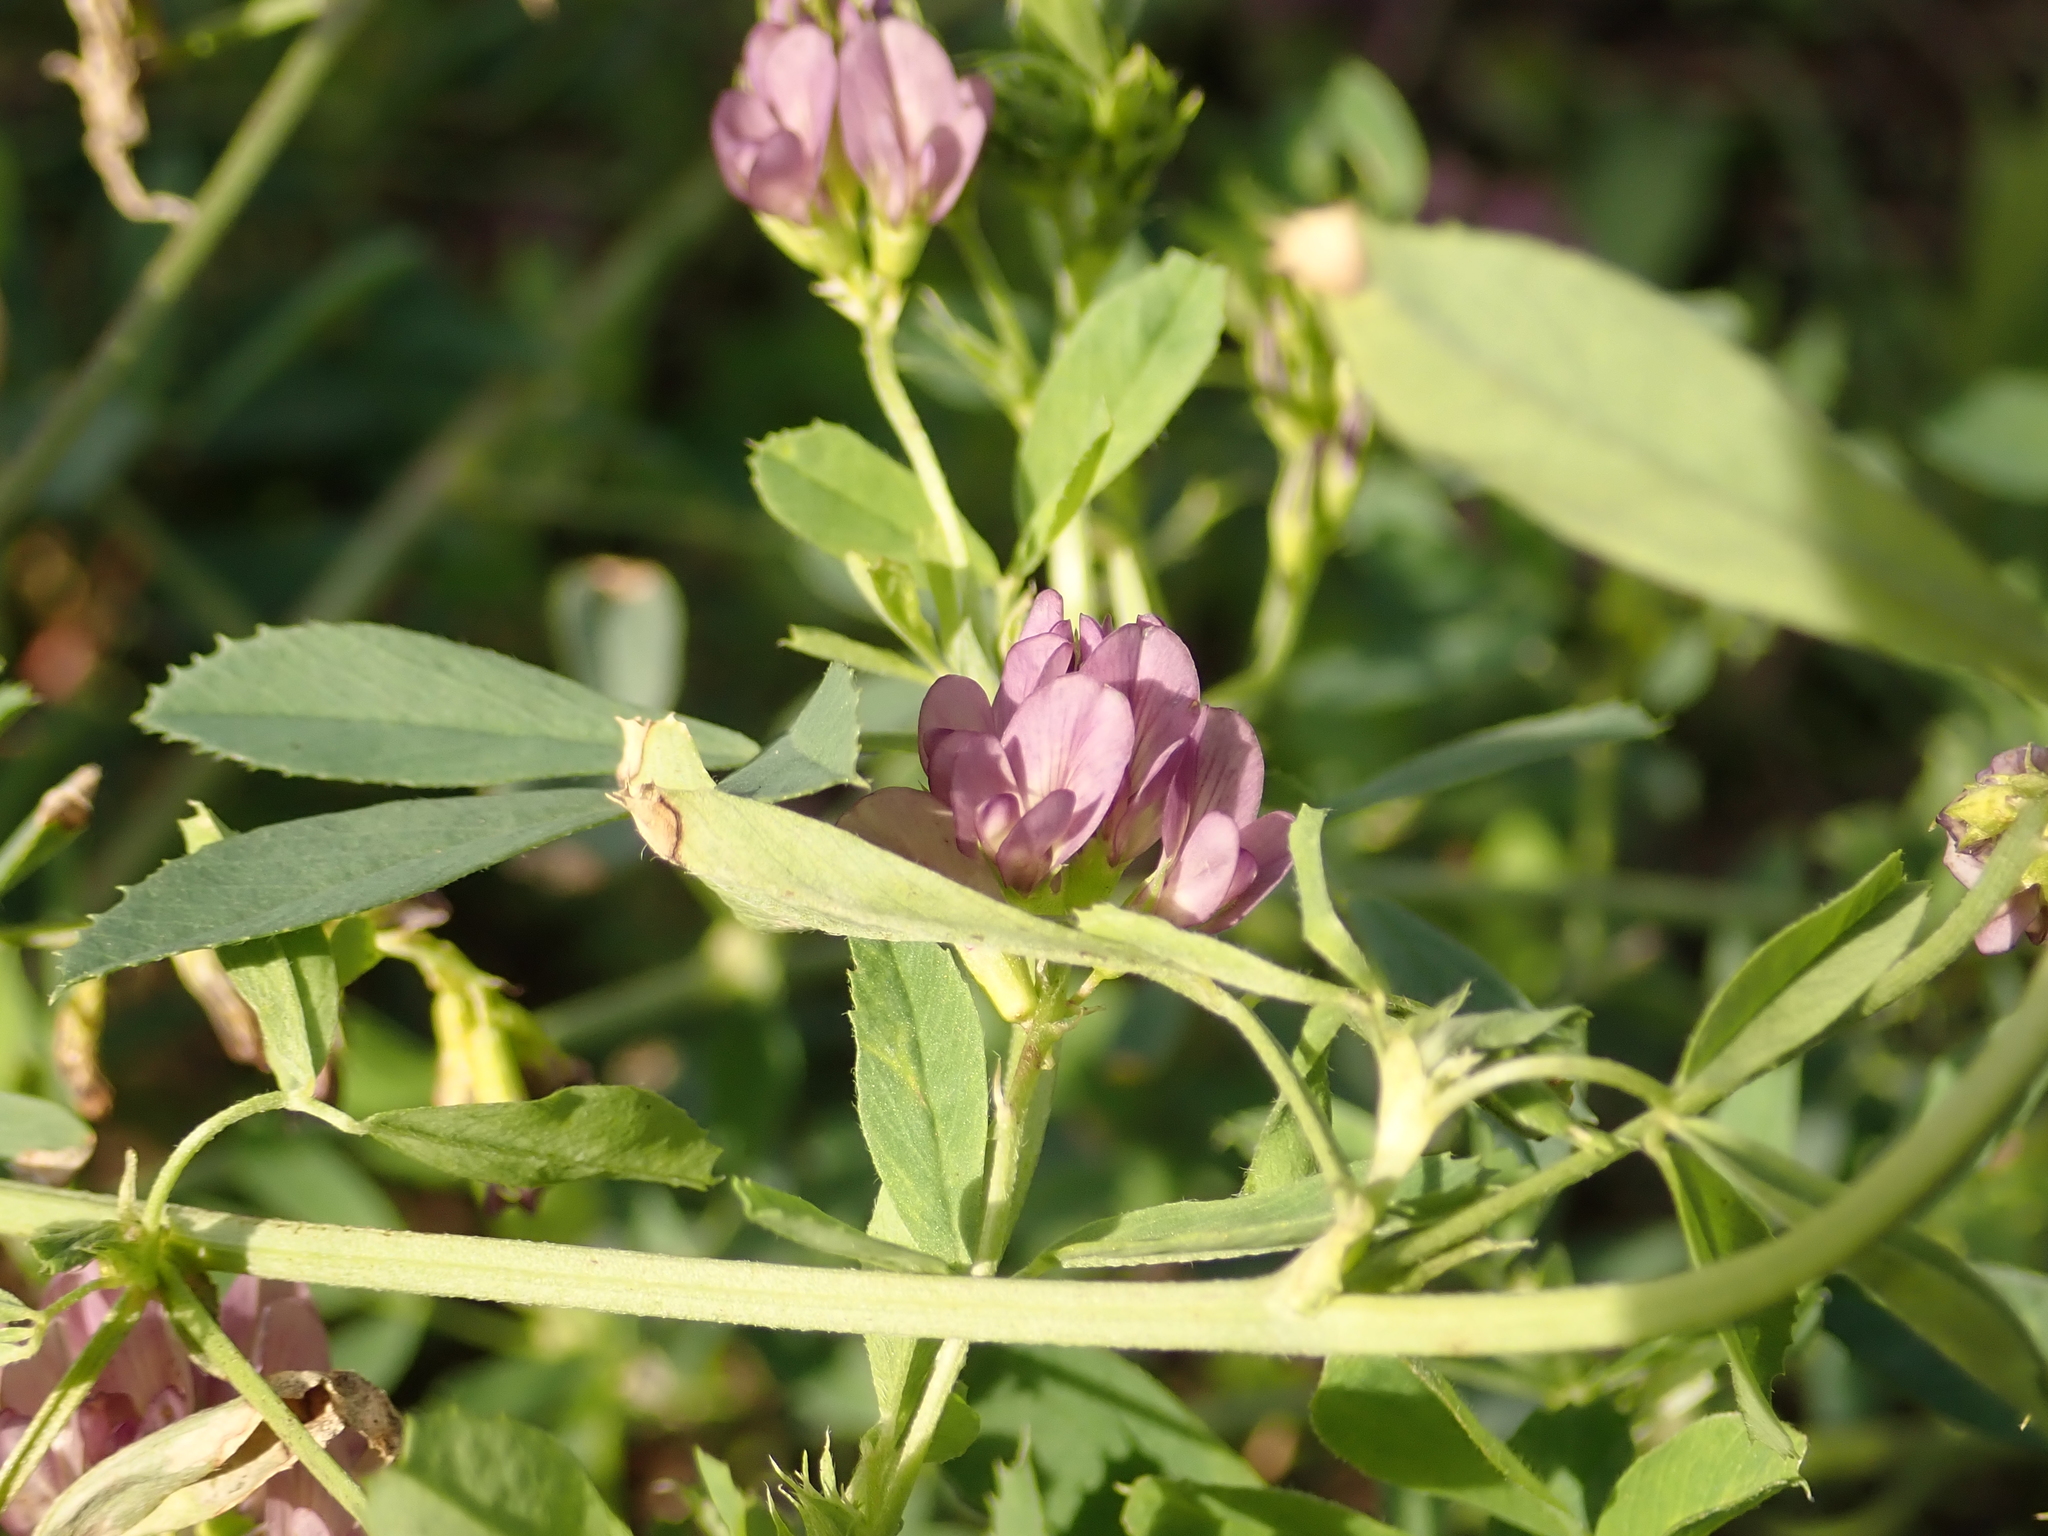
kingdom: Plantae
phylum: Tracheophyta
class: Magnoliopsida
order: Fabales
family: Fabaceae
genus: Medicago
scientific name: Medicago sativa
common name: Alfalfa
